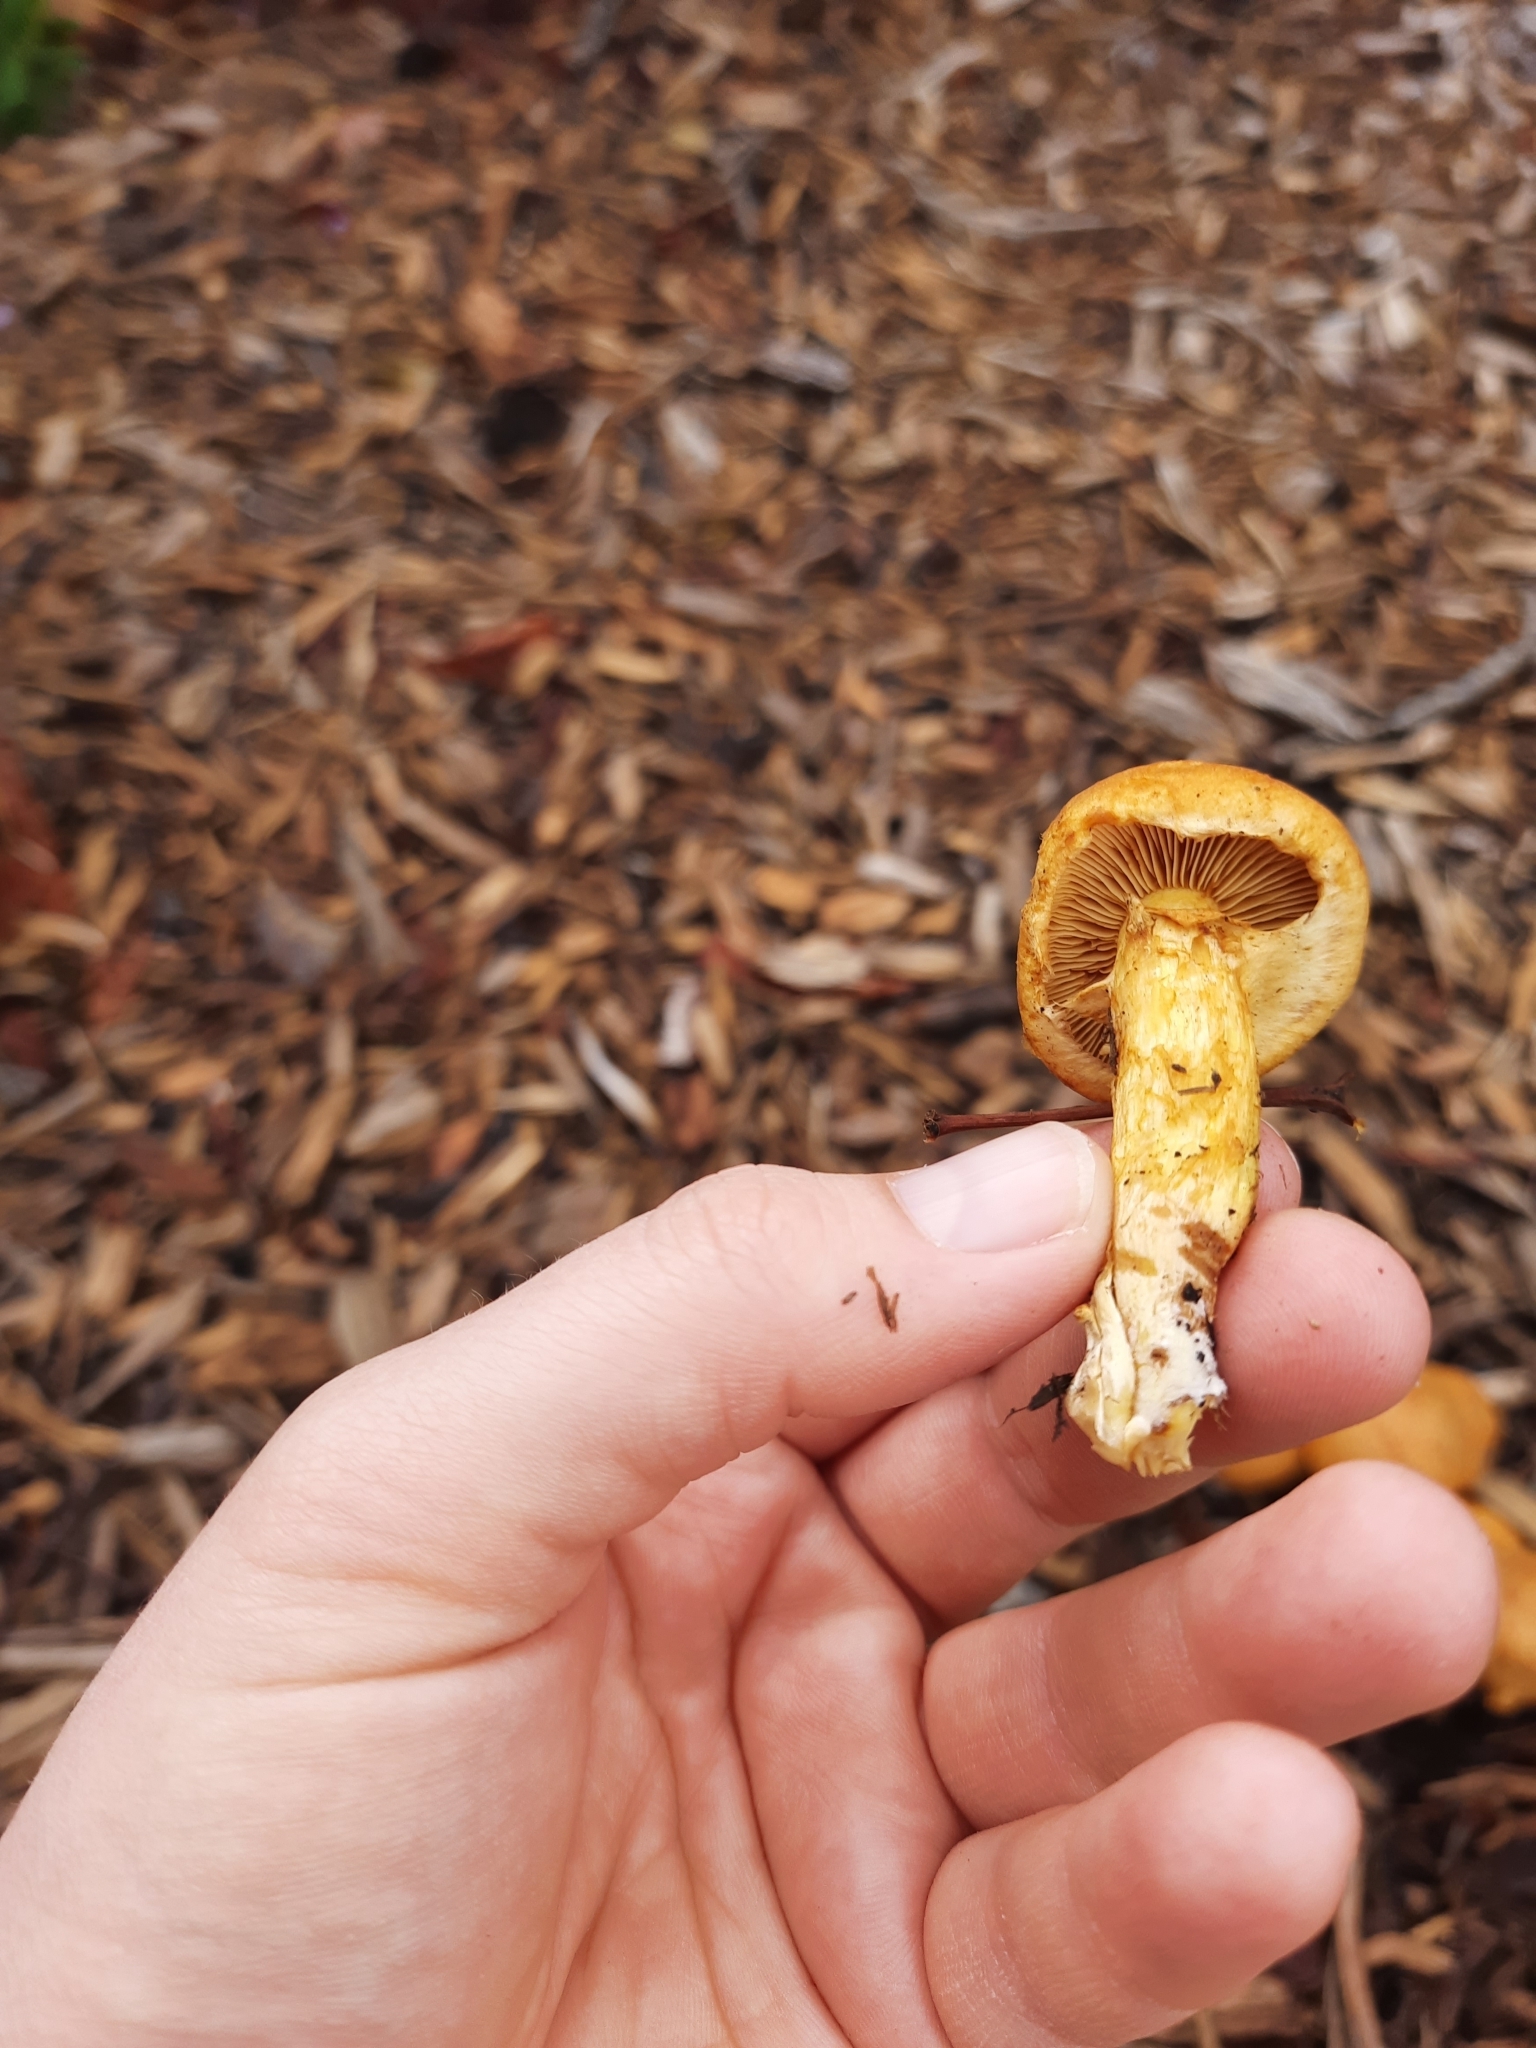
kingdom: Fungi
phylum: Basidiomycota
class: Agaricomycetes
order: Agaricales
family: Hymenogastraceae
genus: Gymnopilus
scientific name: Gymnopilus junonius
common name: Spectacular rustgill
